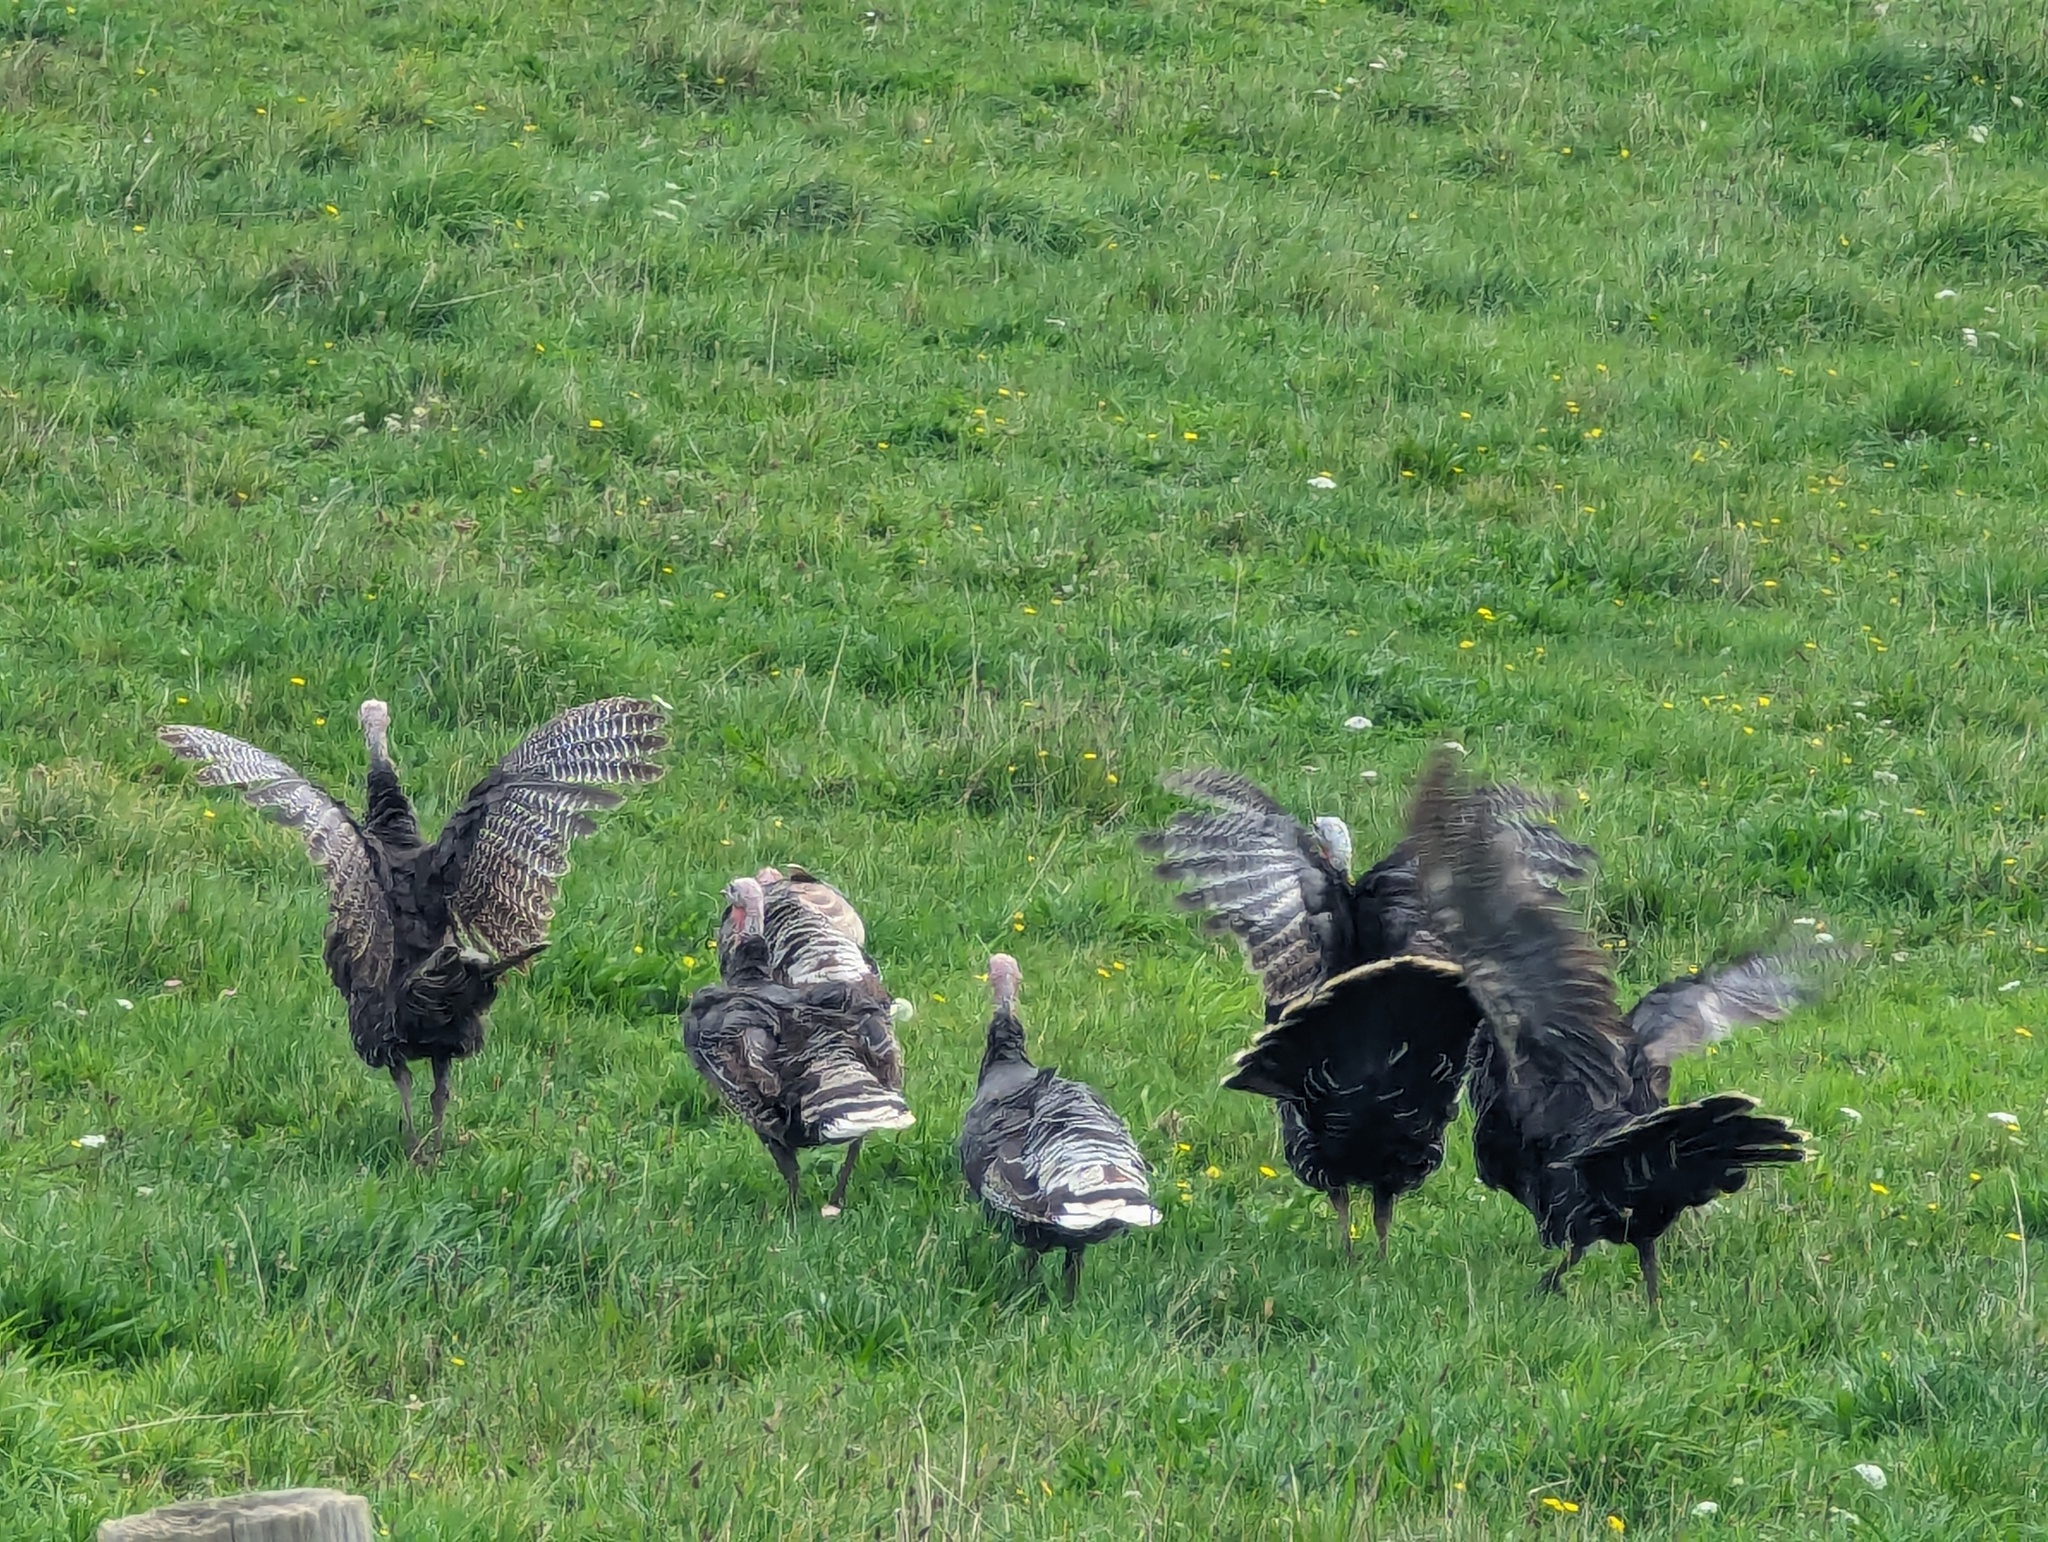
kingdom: Animalia
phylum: Chordata
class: Aves
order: Galliformes
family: Phasianidae
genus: Meleagris
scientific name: Meleagris gallopavo
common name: Wild turkey
